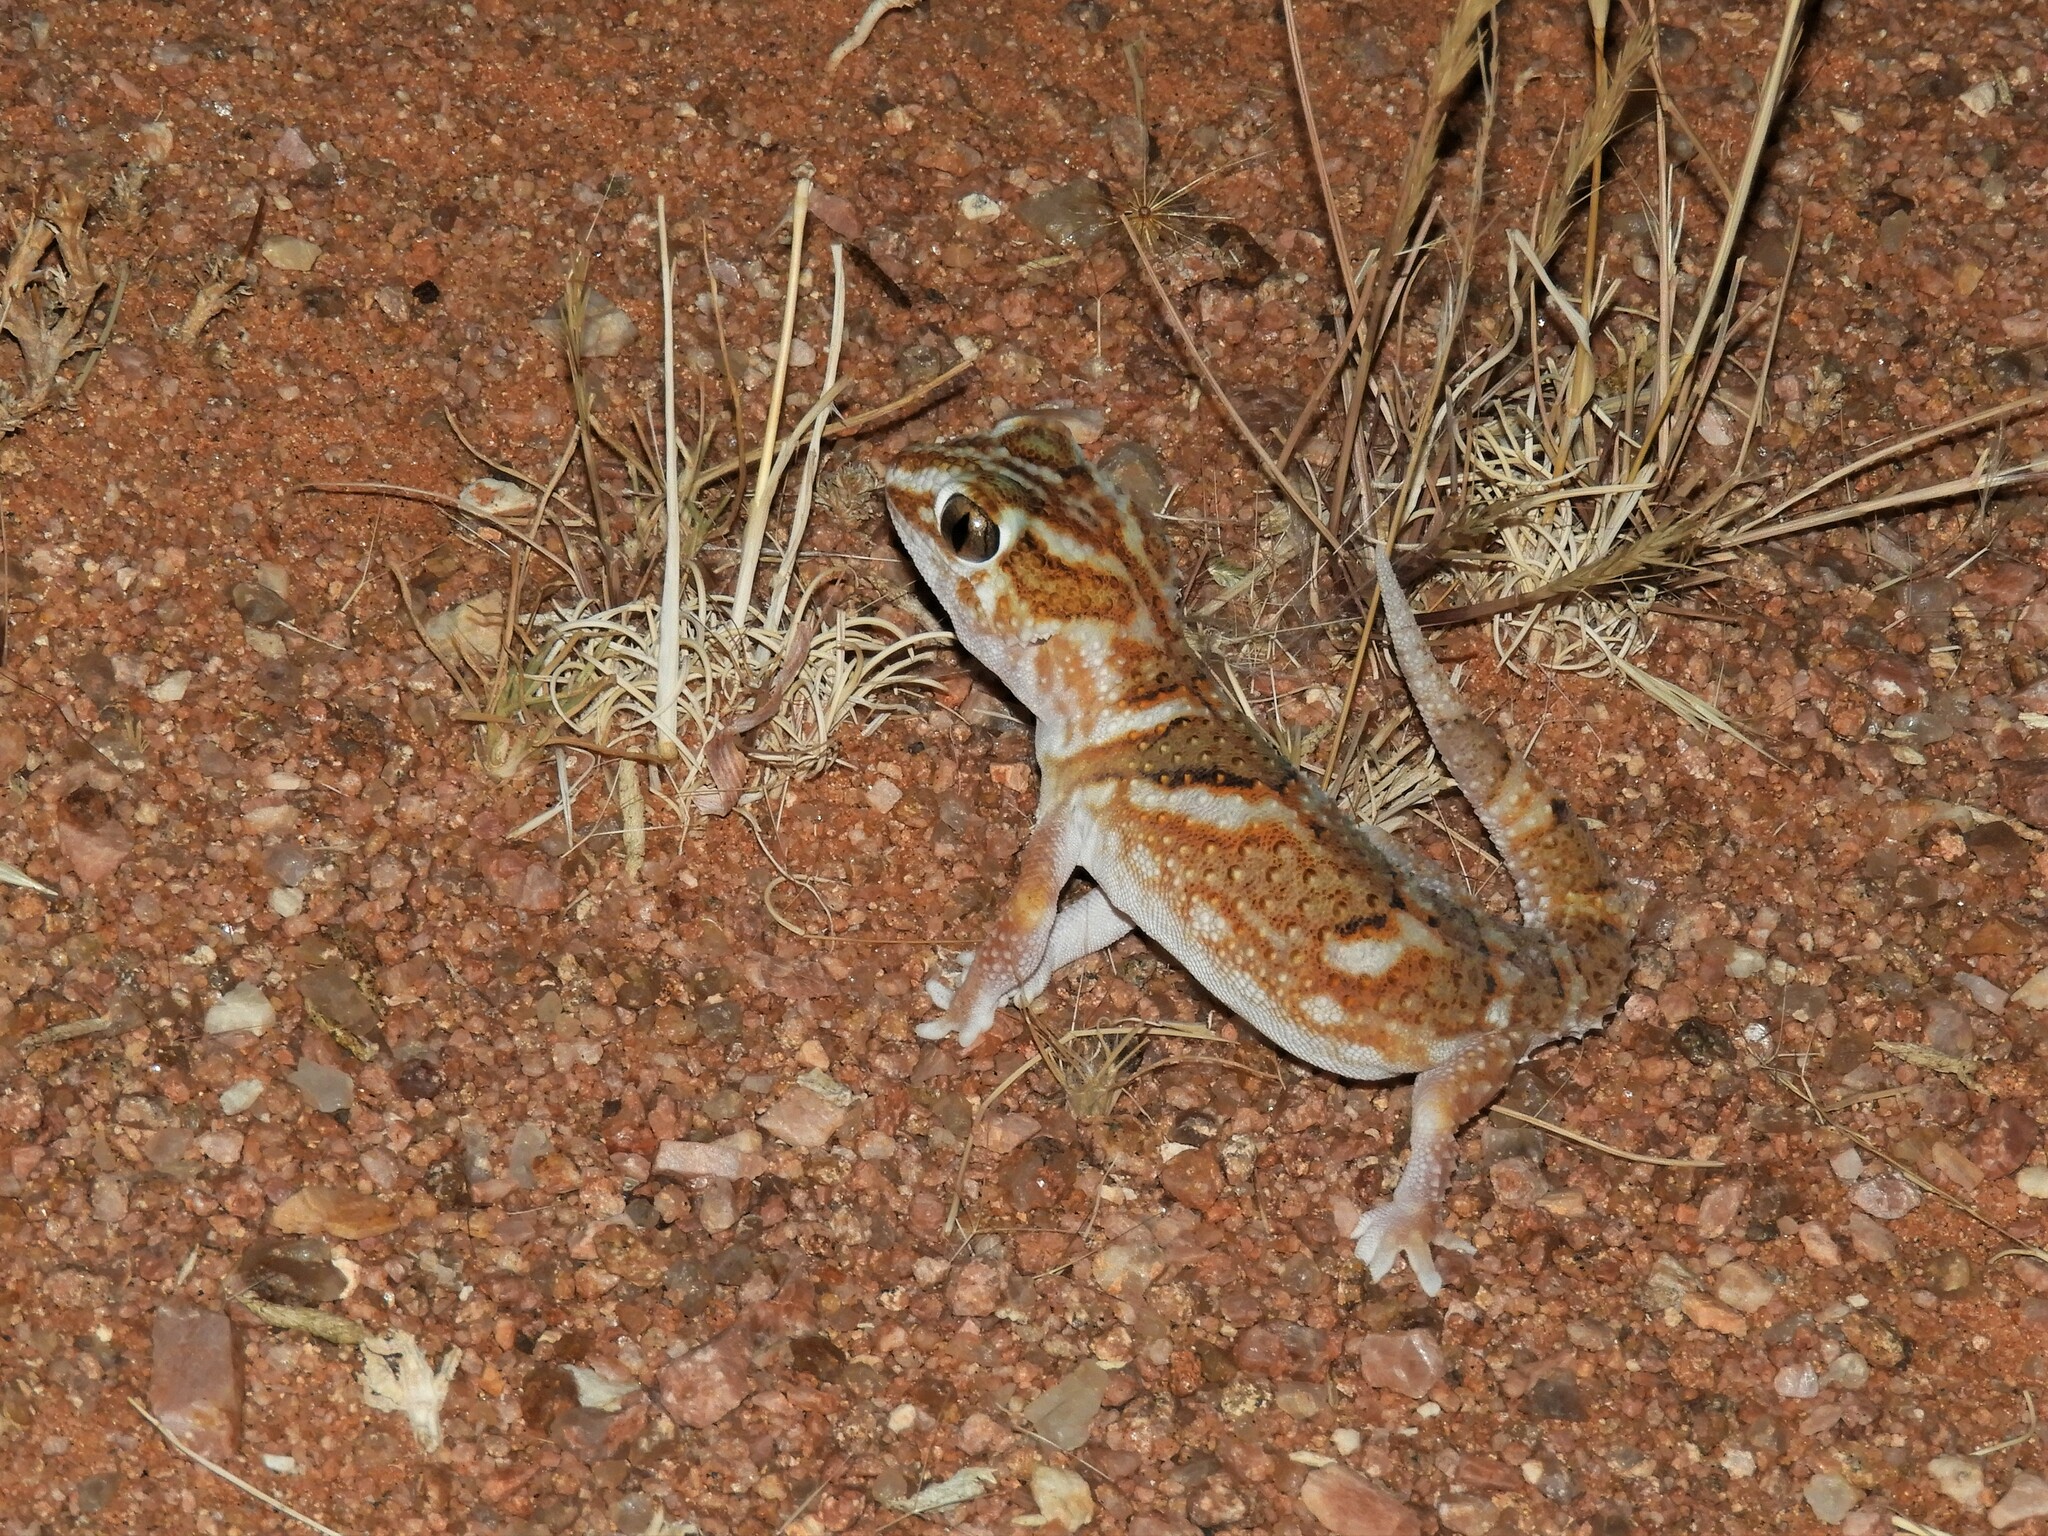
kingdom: Animalia
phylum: Chordata
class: Squamata
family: Gekkonidae
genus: Chondrodactylus
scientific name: Chondrodactylus angulifer
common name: Common giant ground gecko
